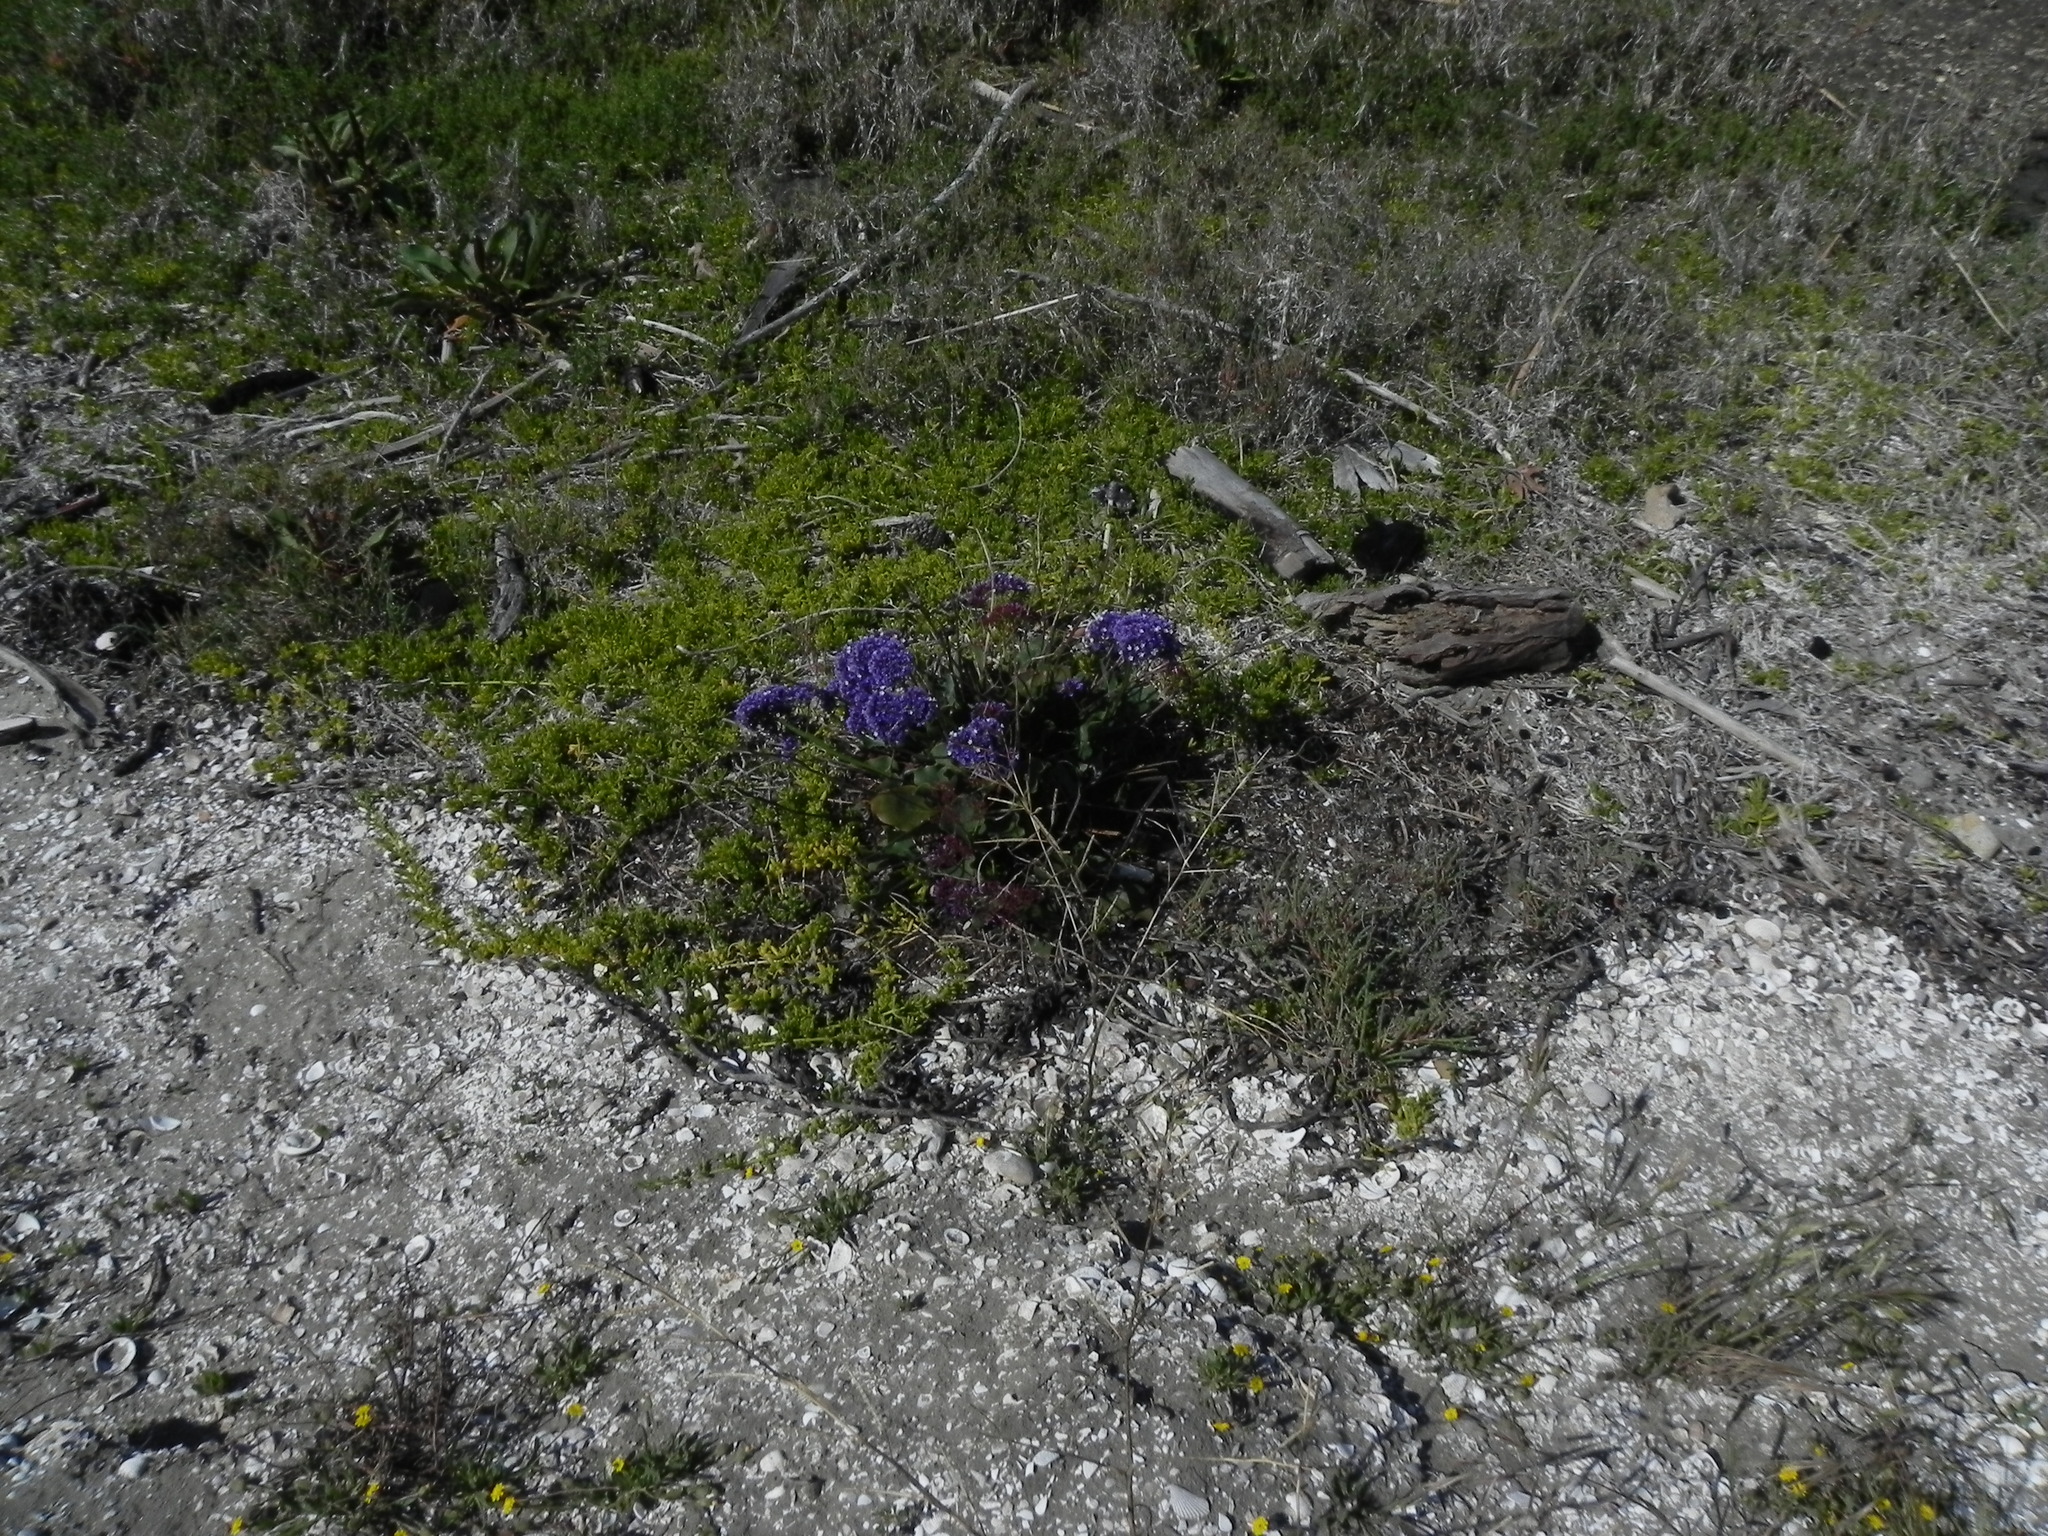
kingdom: Plantae
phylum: Tracheophyta
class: Magnoliopsida
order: Caryophyllales
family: Plumbaginaceae
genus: Limonium
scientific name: Limonium perezii
